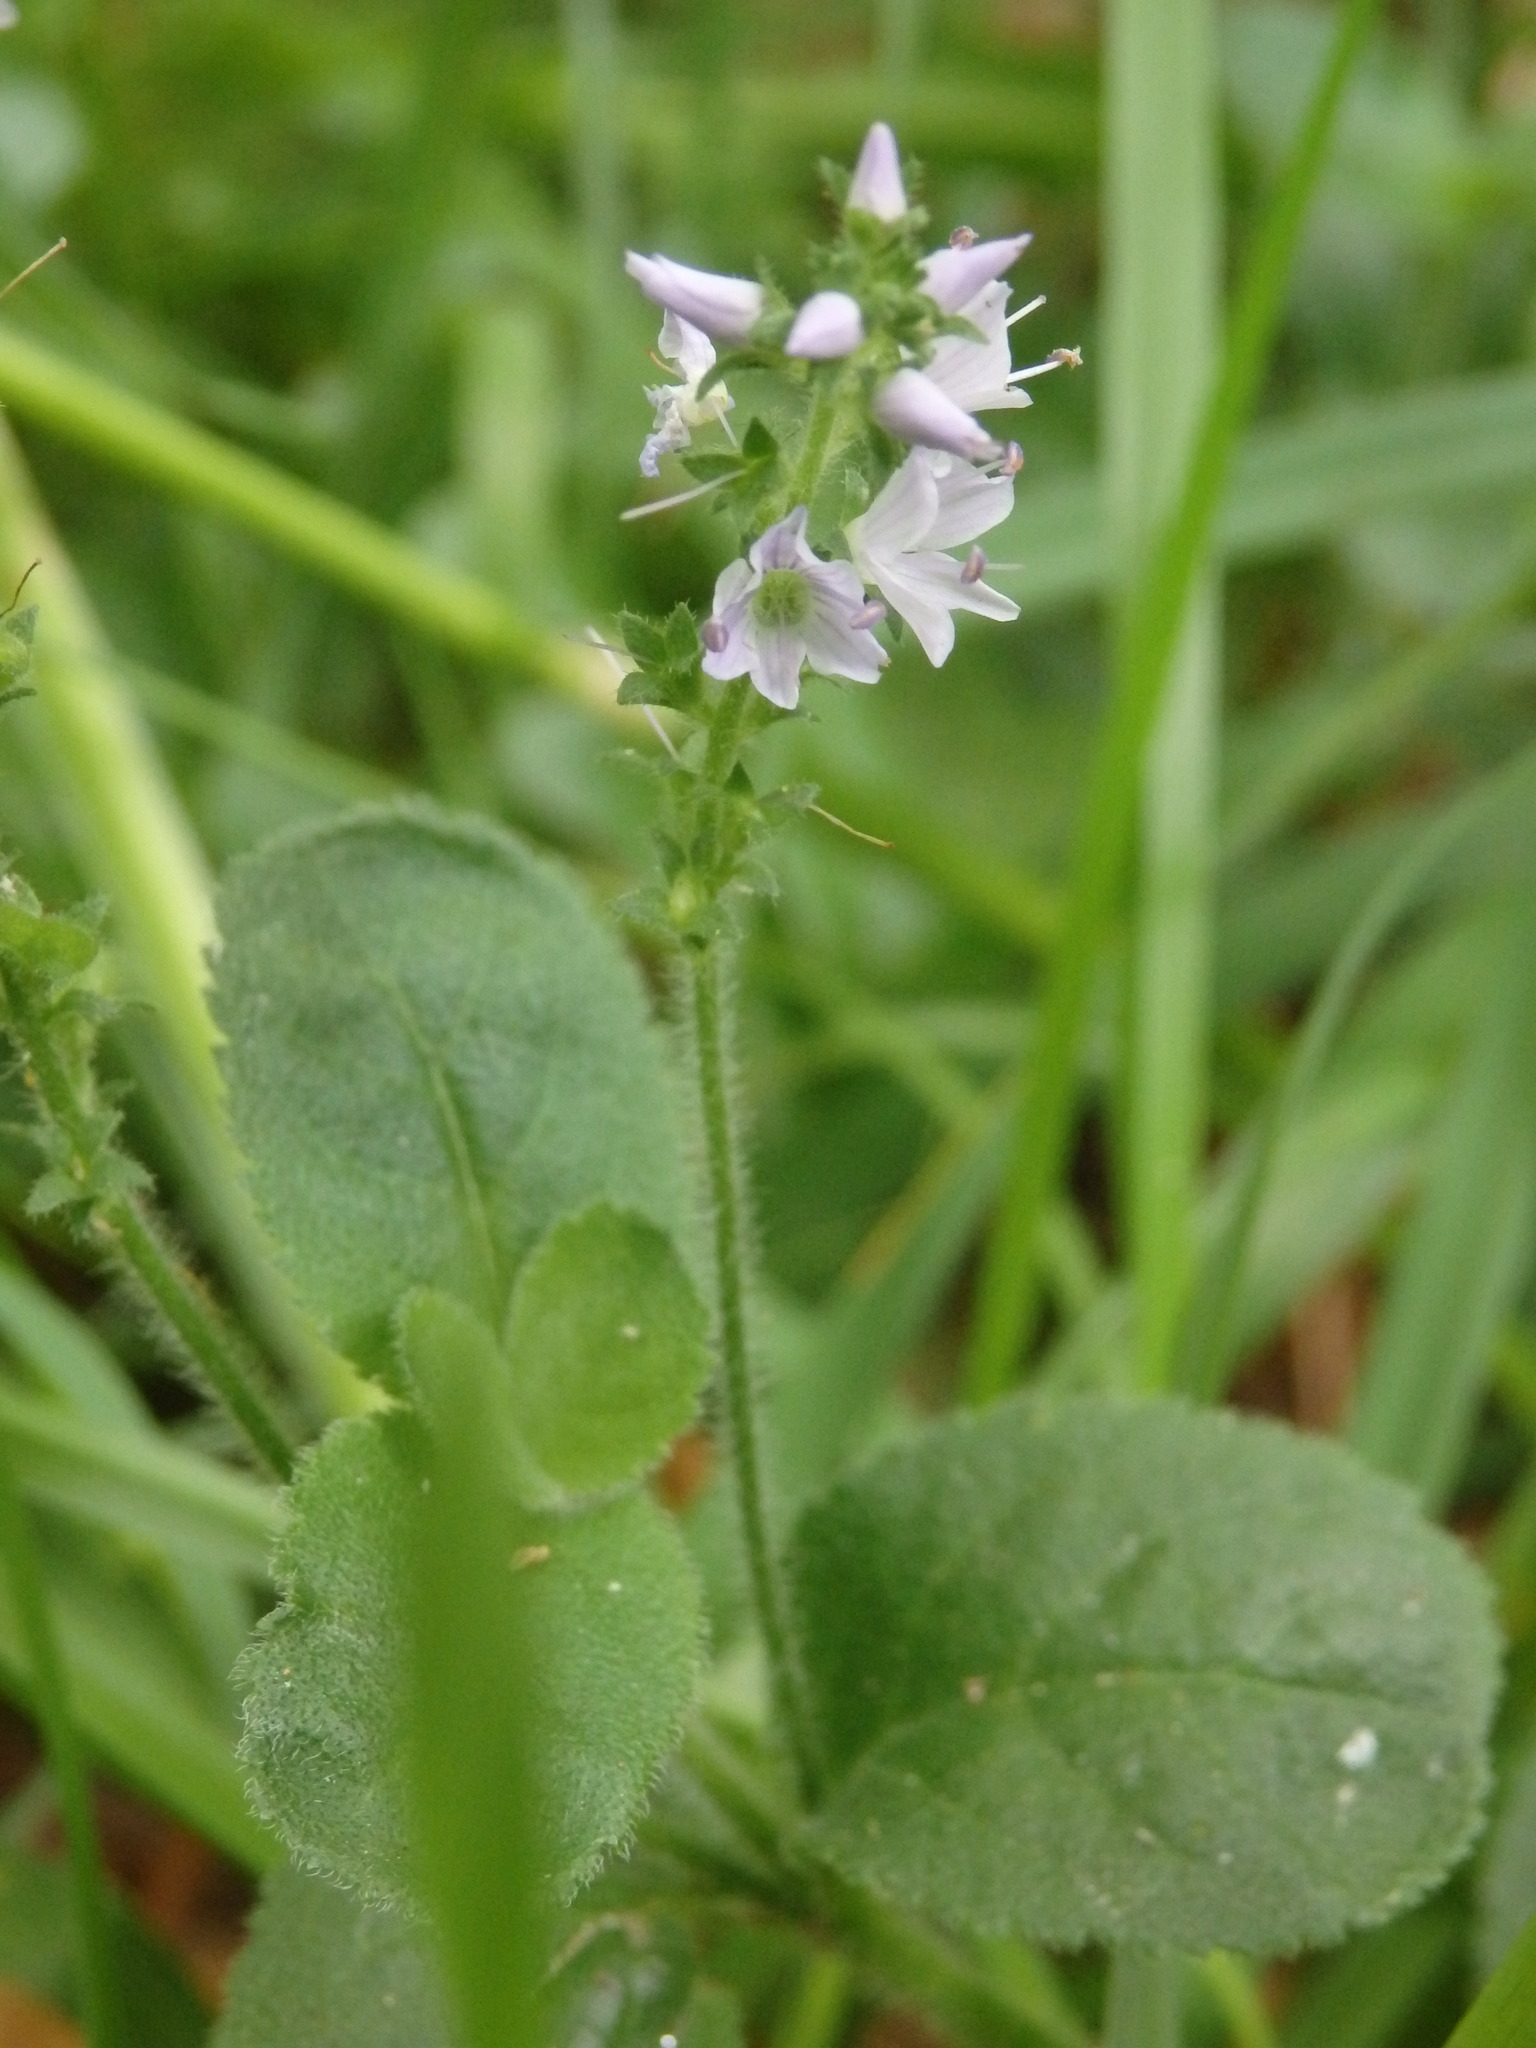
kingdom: Plantae
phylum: Tracheophyta
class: Magnoliopsida
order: Lamiales
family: Plantaginaceae
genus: Veronica
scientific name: Veronica officinalis
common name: Common speedwell
